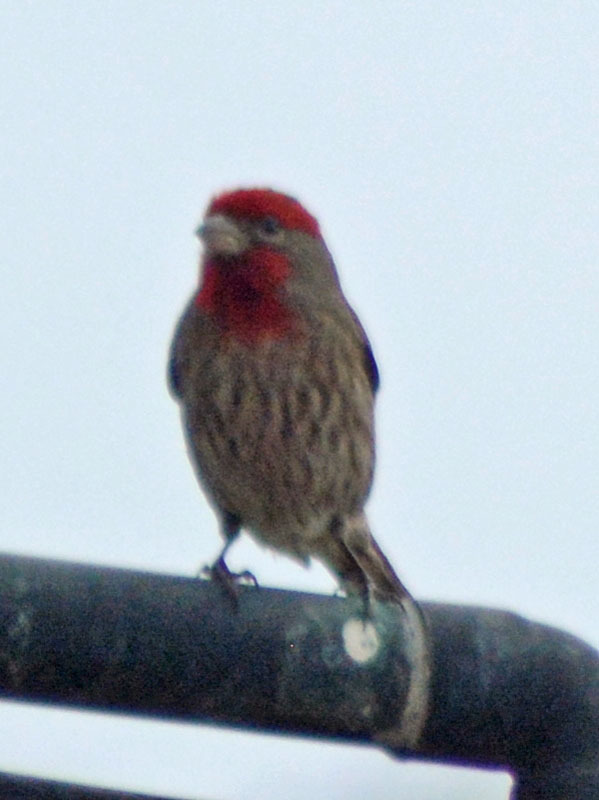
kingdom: Animalia
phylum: Chordata
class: Aves
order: Passeriformes
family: Fringillidae
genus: Haemorhous
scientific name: Haemorhous mexicanus
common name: House finch
